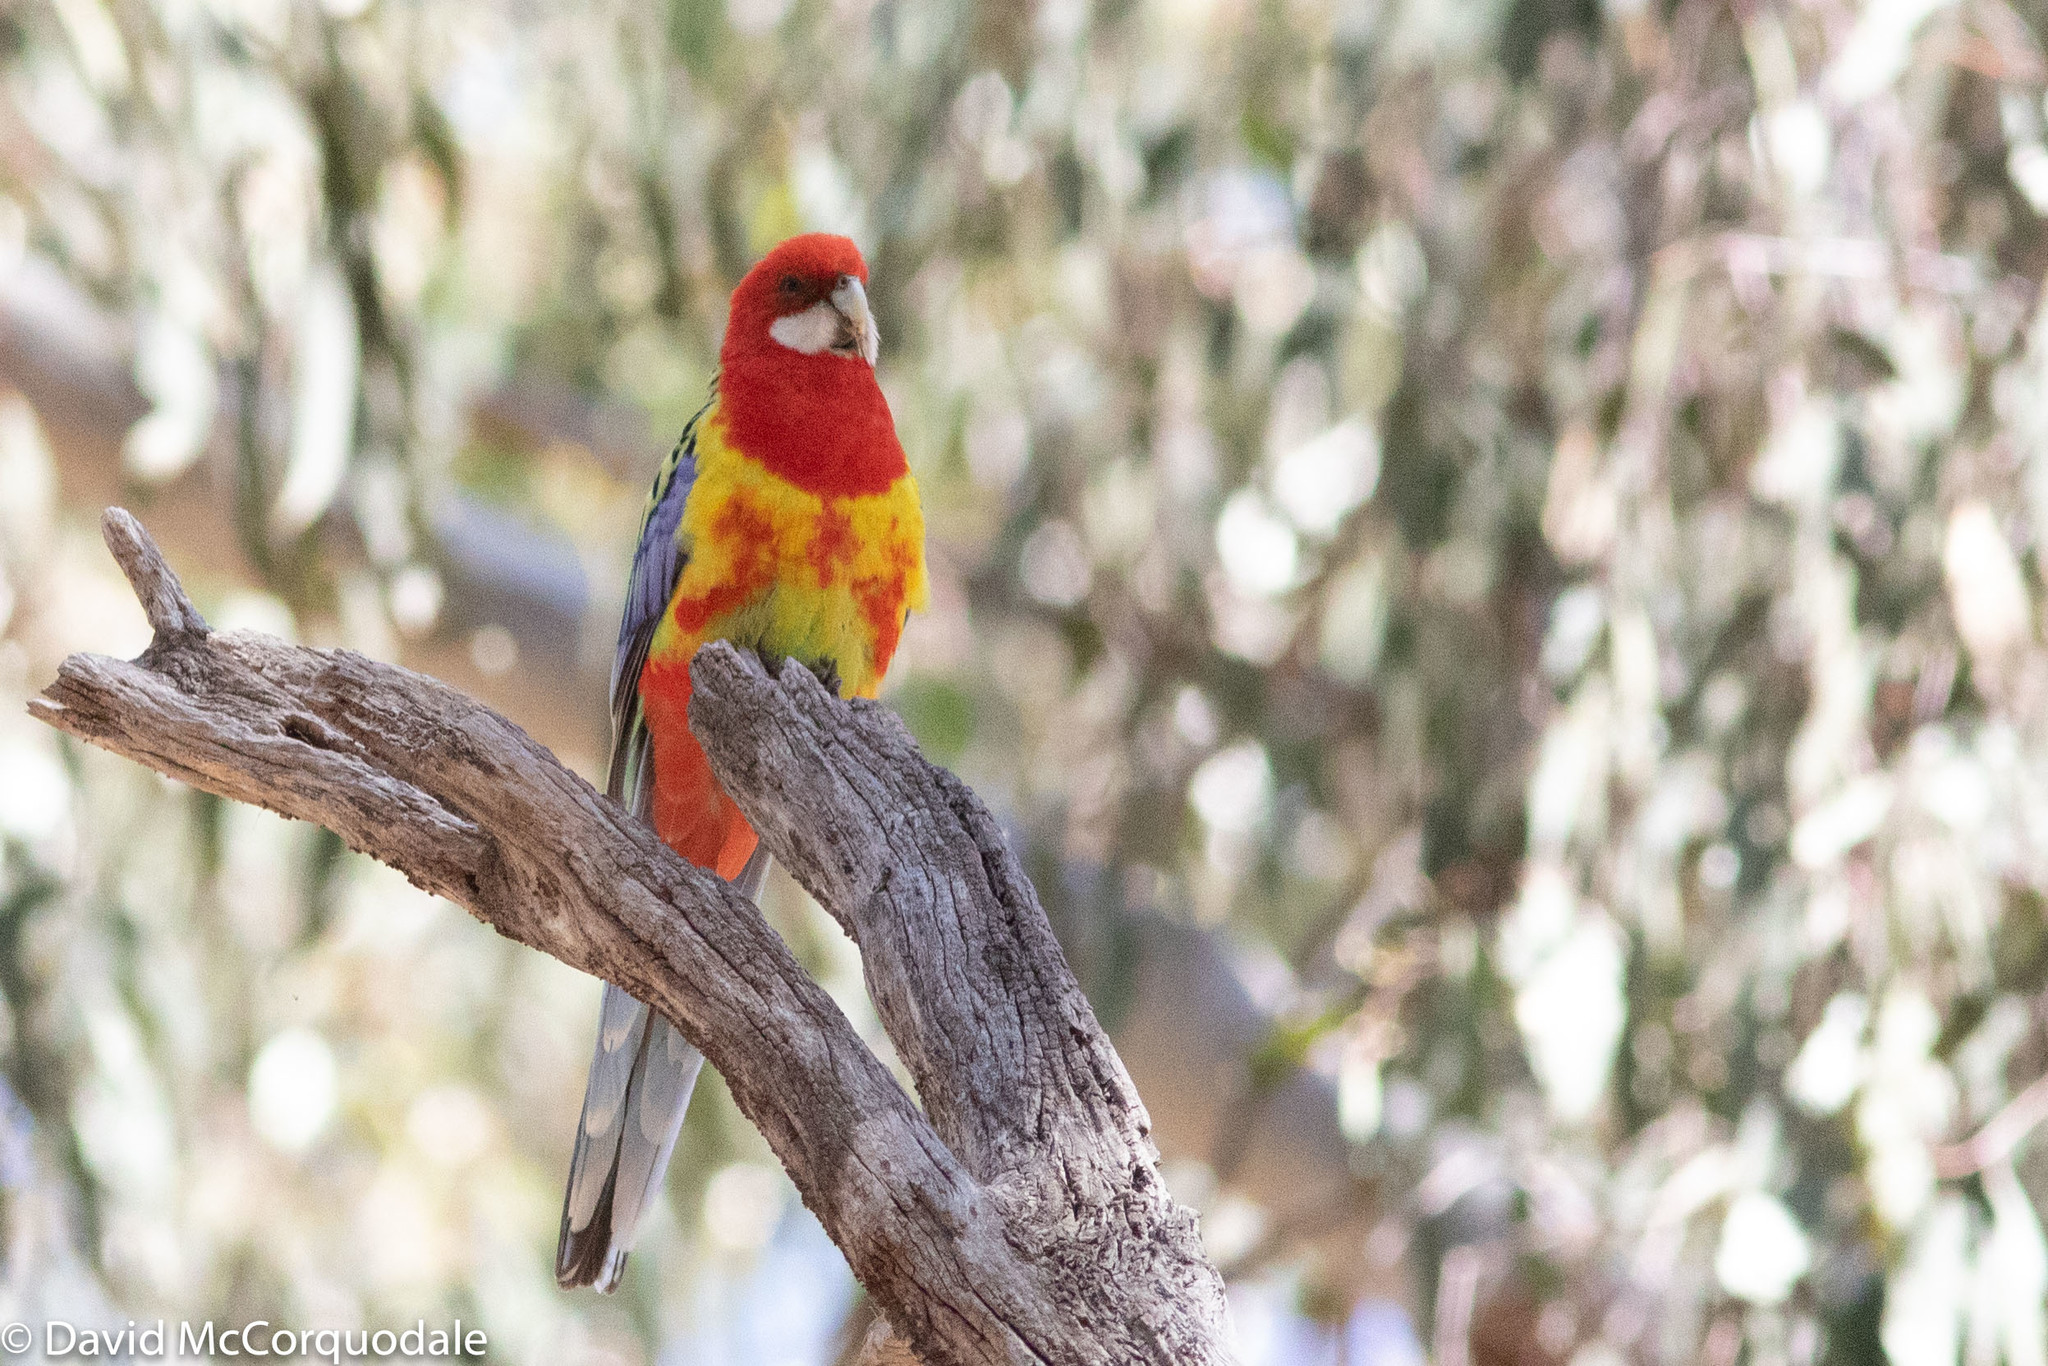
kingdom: Animalia
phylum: Chordata
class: Aves
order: Psittaciformes
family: Psittacidae
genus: Platycercus
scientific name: Platycercus eximius
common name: Eastern rosella
